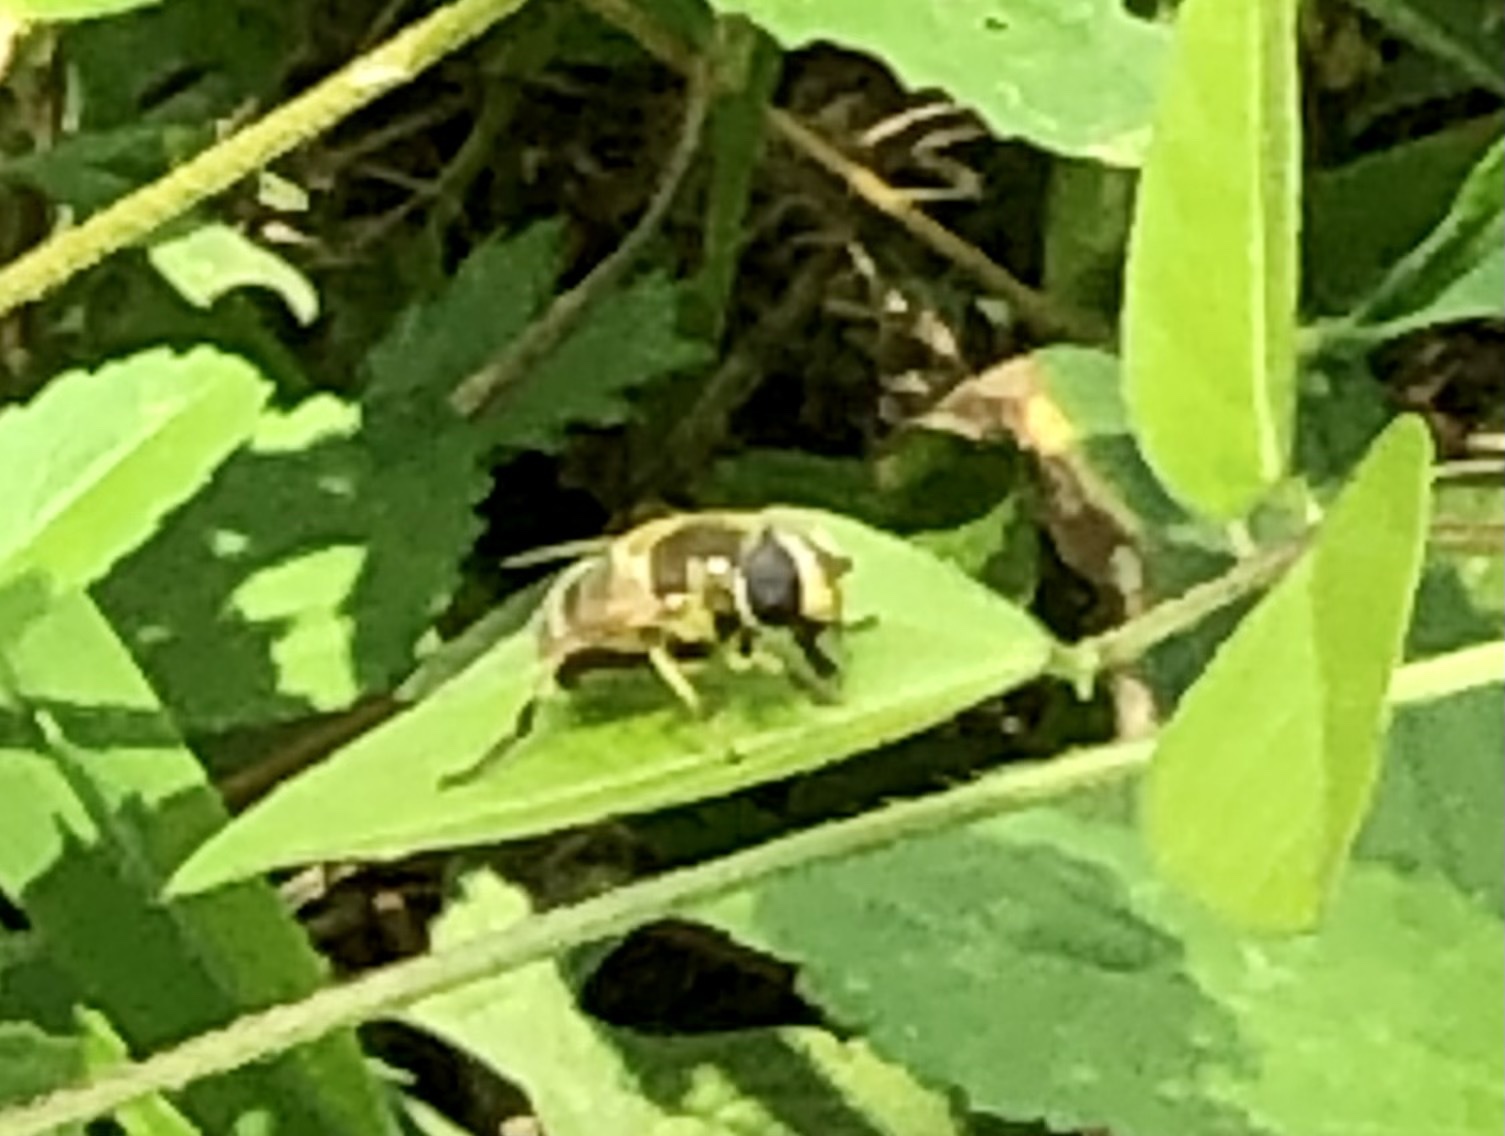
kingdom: Animalia
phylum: Arthropoda
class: Insecta
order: Diptera
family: Syrphidae
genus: Eristalis
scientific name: Eristalis stipator
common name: Yellow-shouldered drone fly
